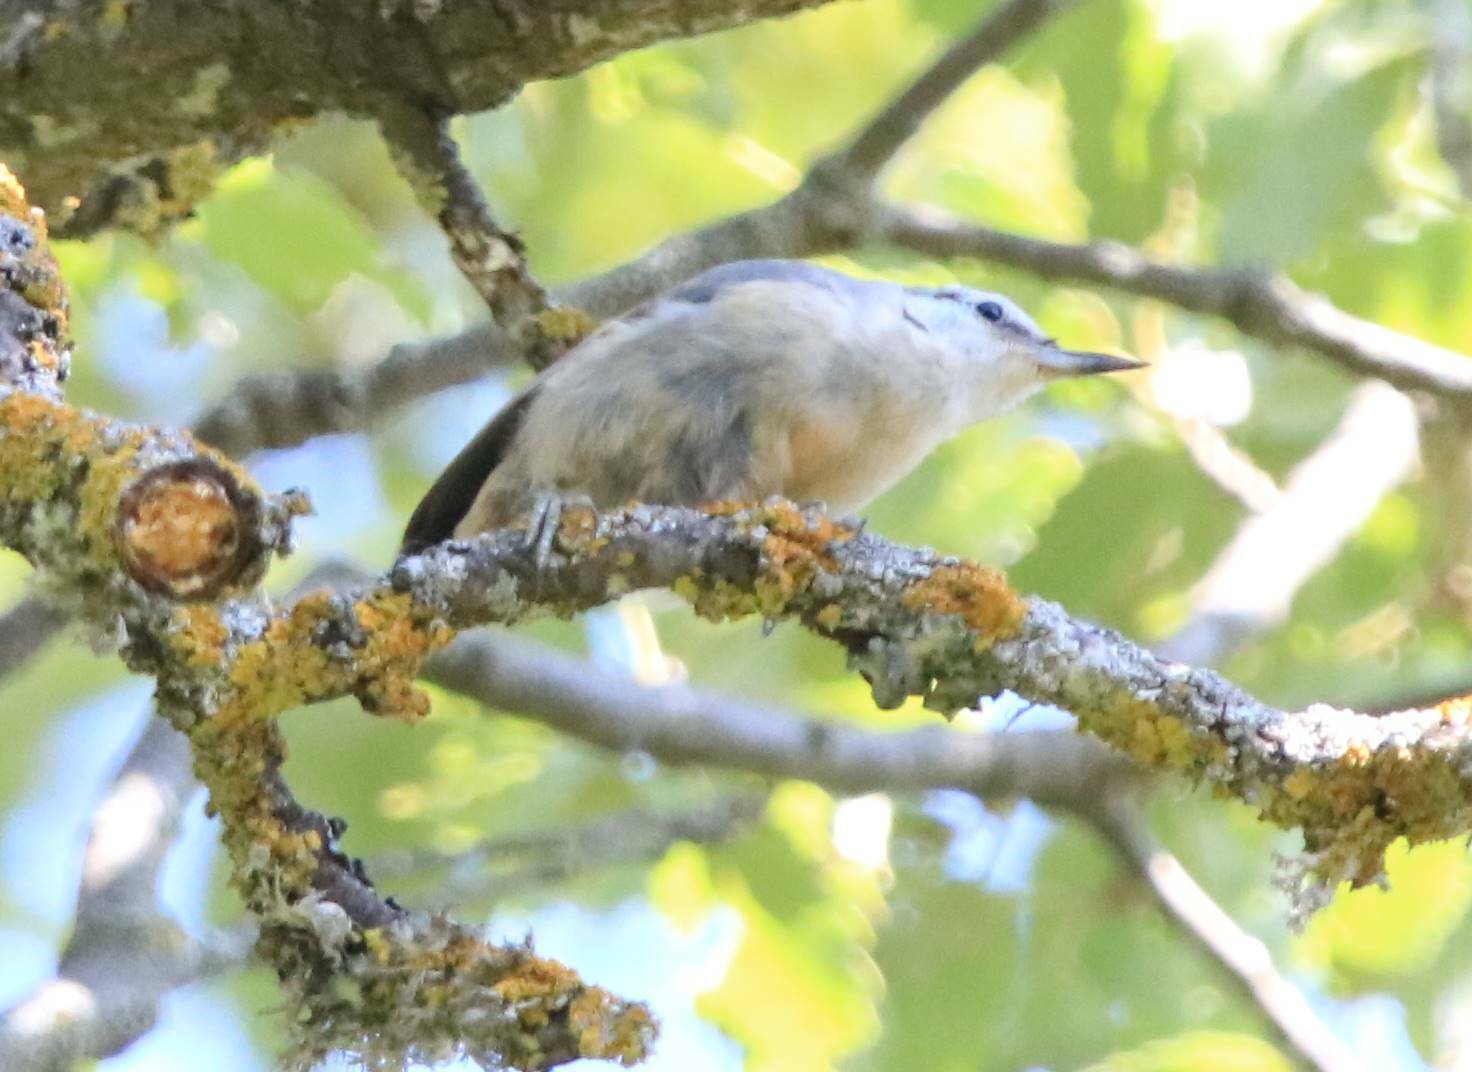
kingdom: Animalia
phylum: Chordata
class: Aves
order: Passeriformes
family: Sittidae
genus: Sitta
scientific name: Sitta ledanti
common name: Algerian nuthatch
